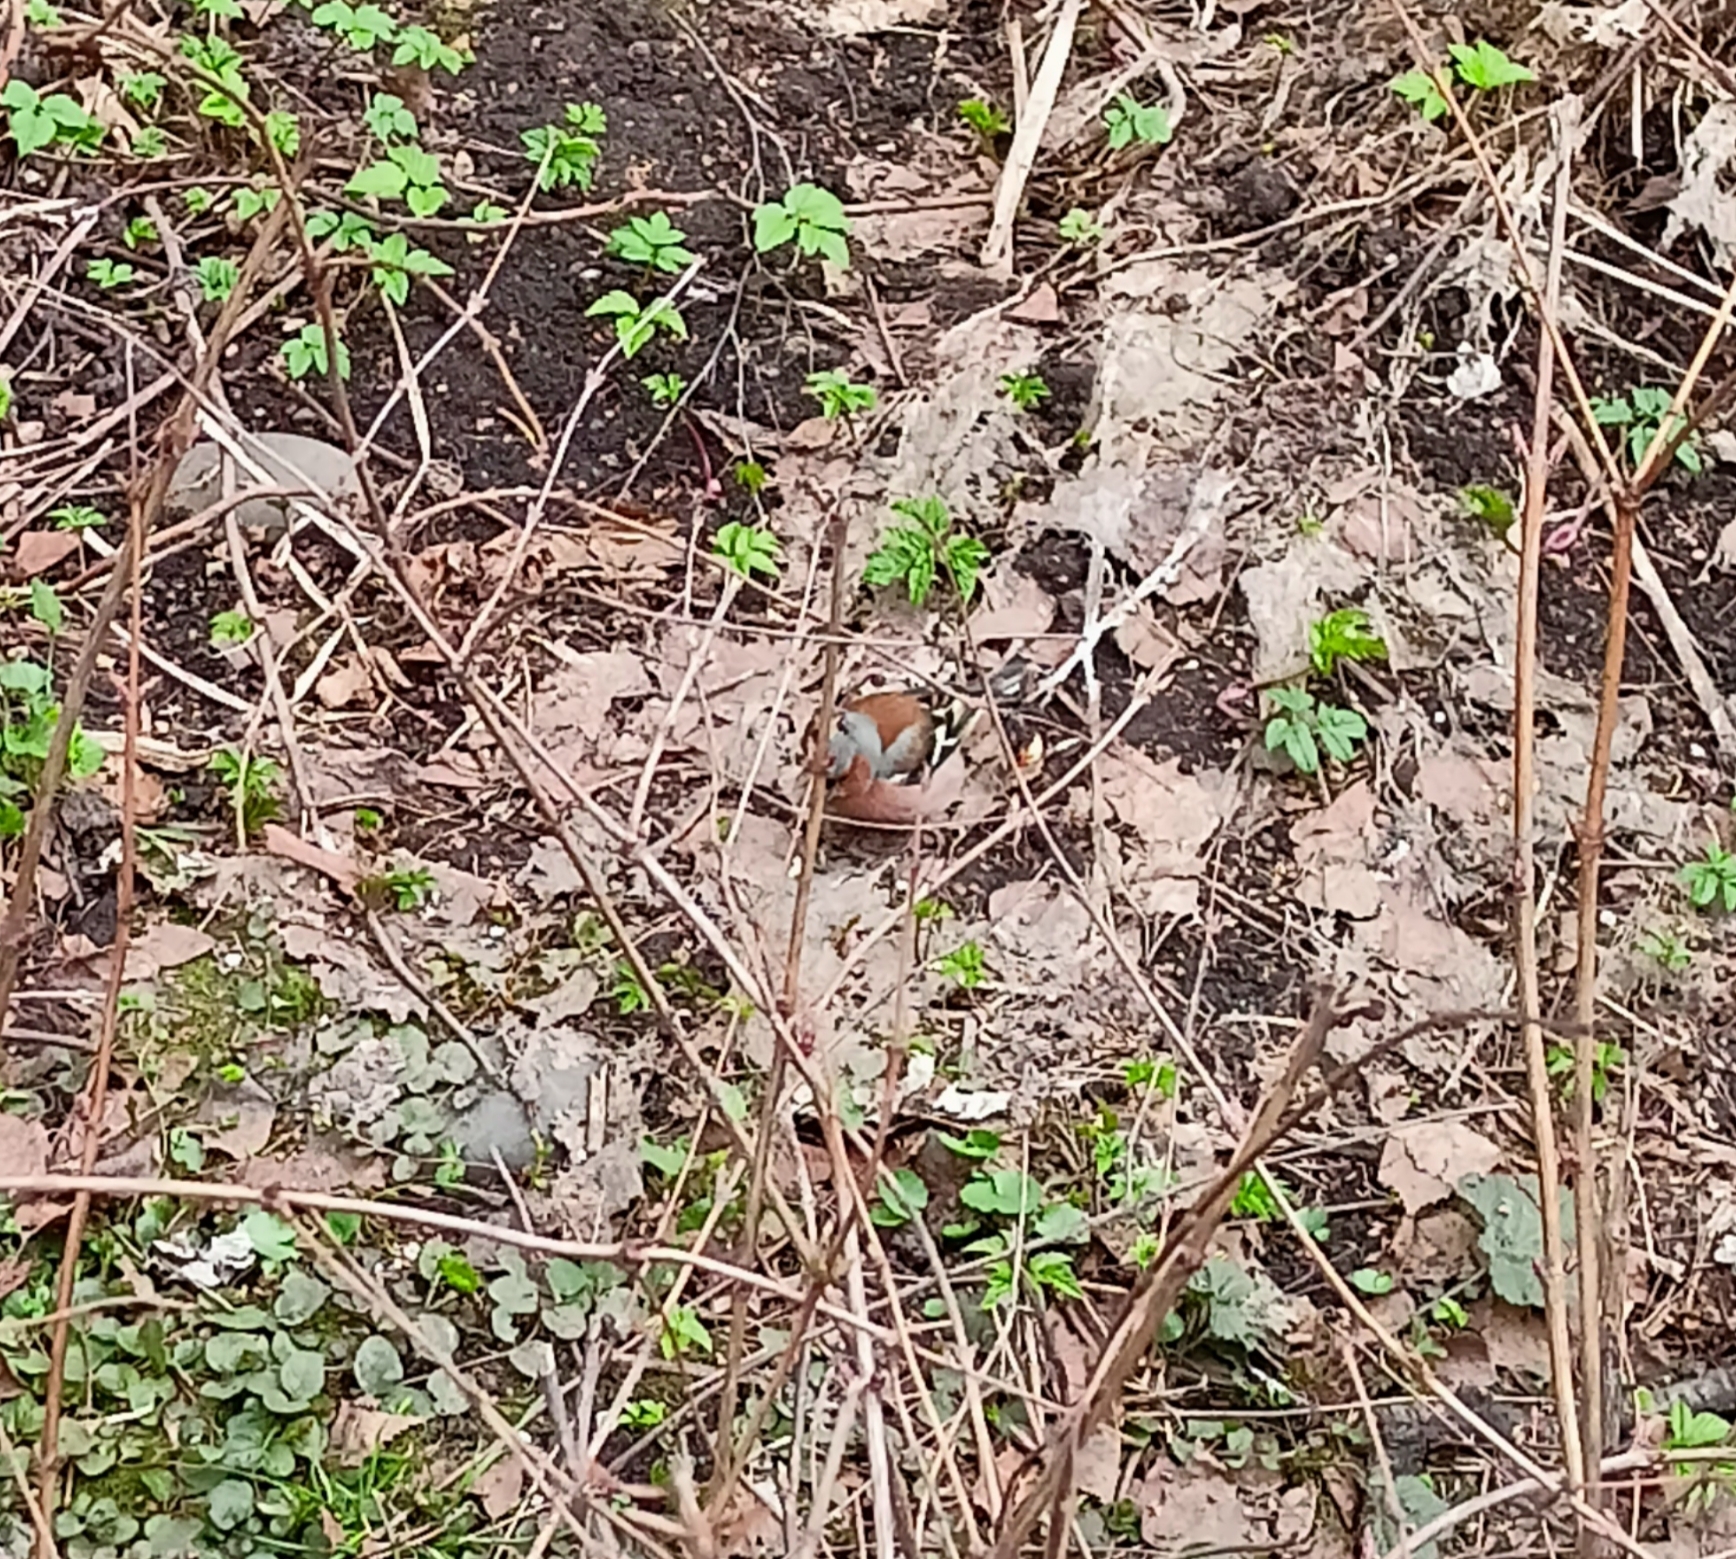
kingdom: Animalia
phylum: Chordata
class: Aves
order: Passeriformes
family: Fringillidae
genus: Fringilla
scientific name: Fringilla coelebs
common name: Common chaffinch
